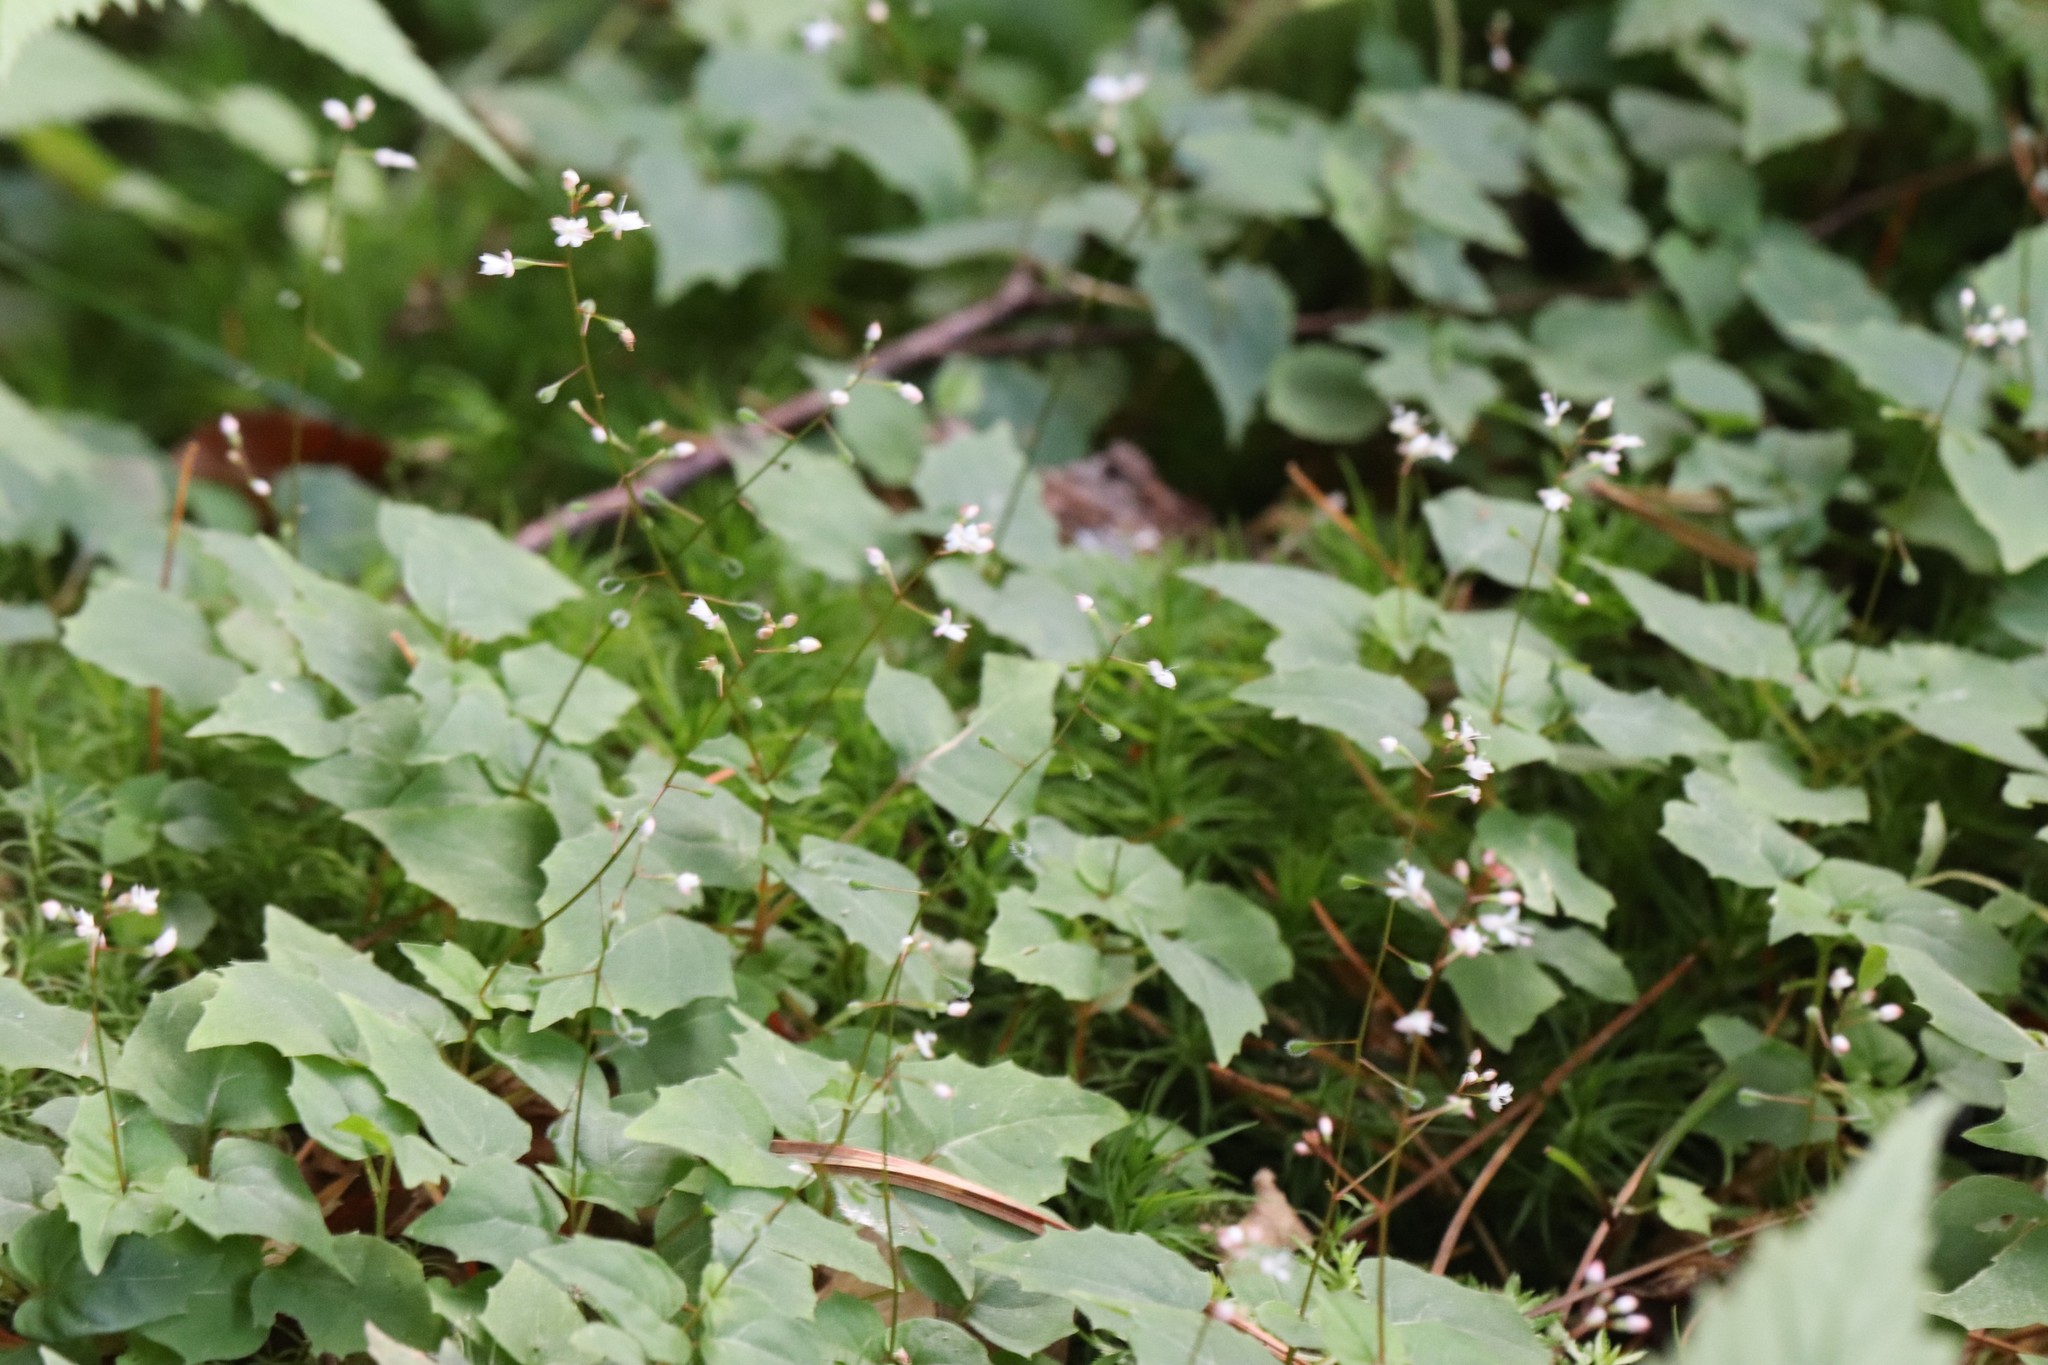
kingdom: Plantae
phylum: Tracheophyta
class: Magnoliopsida
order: Myrtales
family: Onagraceae
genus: Circaea
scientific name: Circaea alpina
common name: Alpine enchanter's-nightshade
